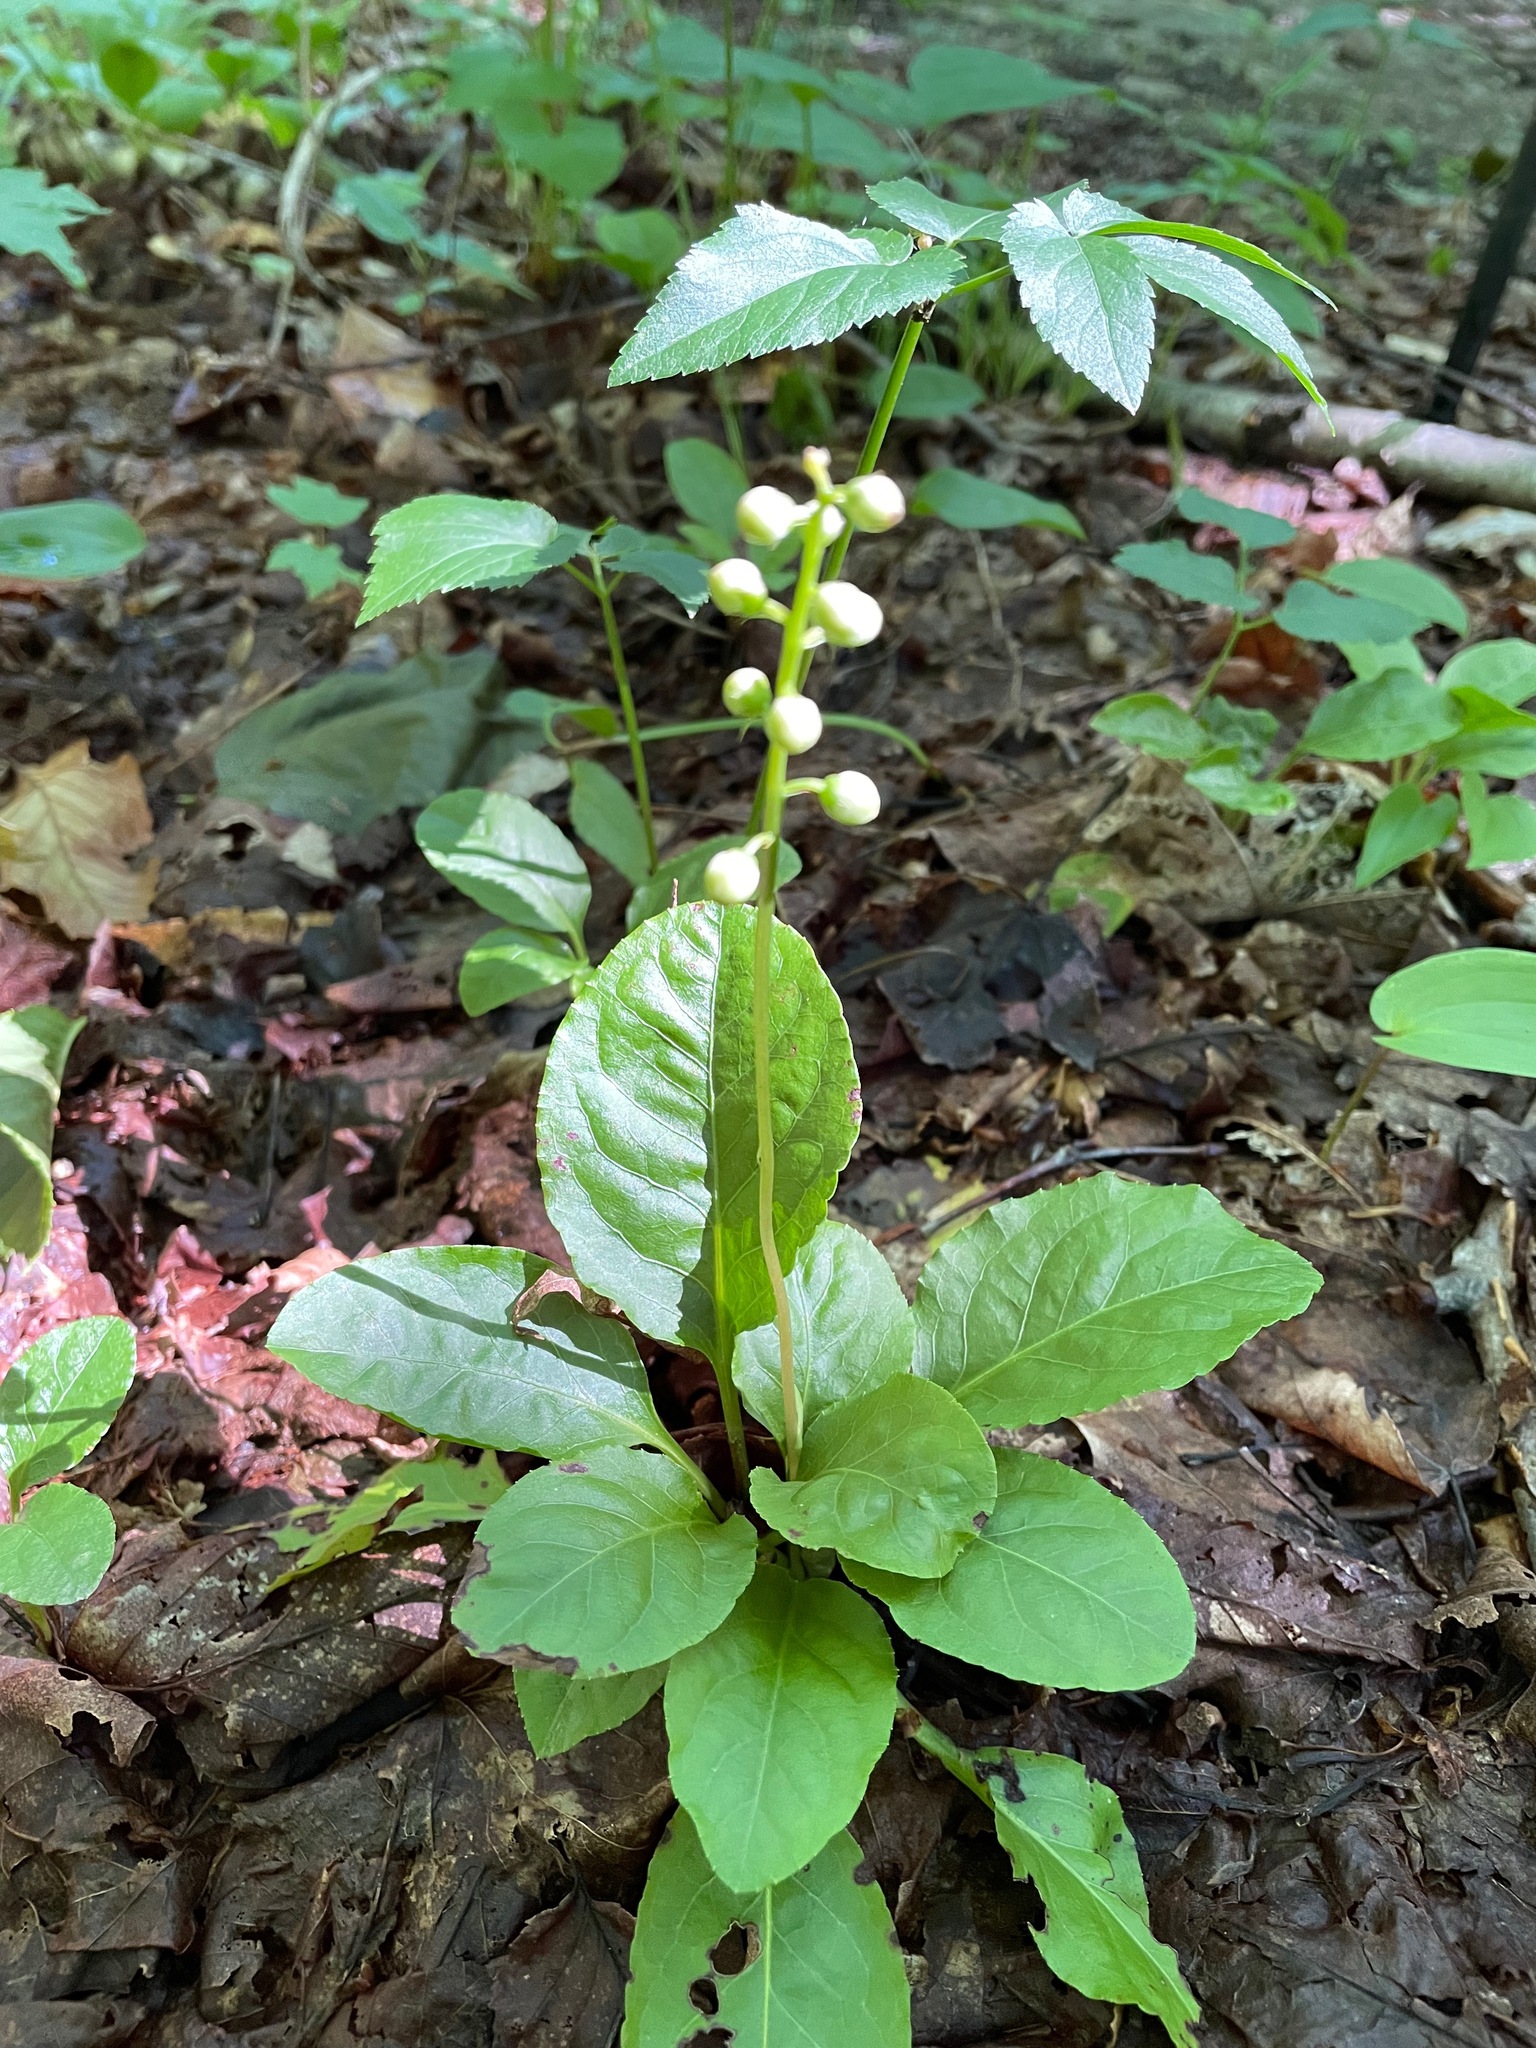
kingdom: Plantae
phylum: Tracheophyta
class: Magnoliopsida
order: Ericales
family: Ericaceae
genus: Pyrola
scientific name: Pyrola elliptica
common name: Shinleaf
